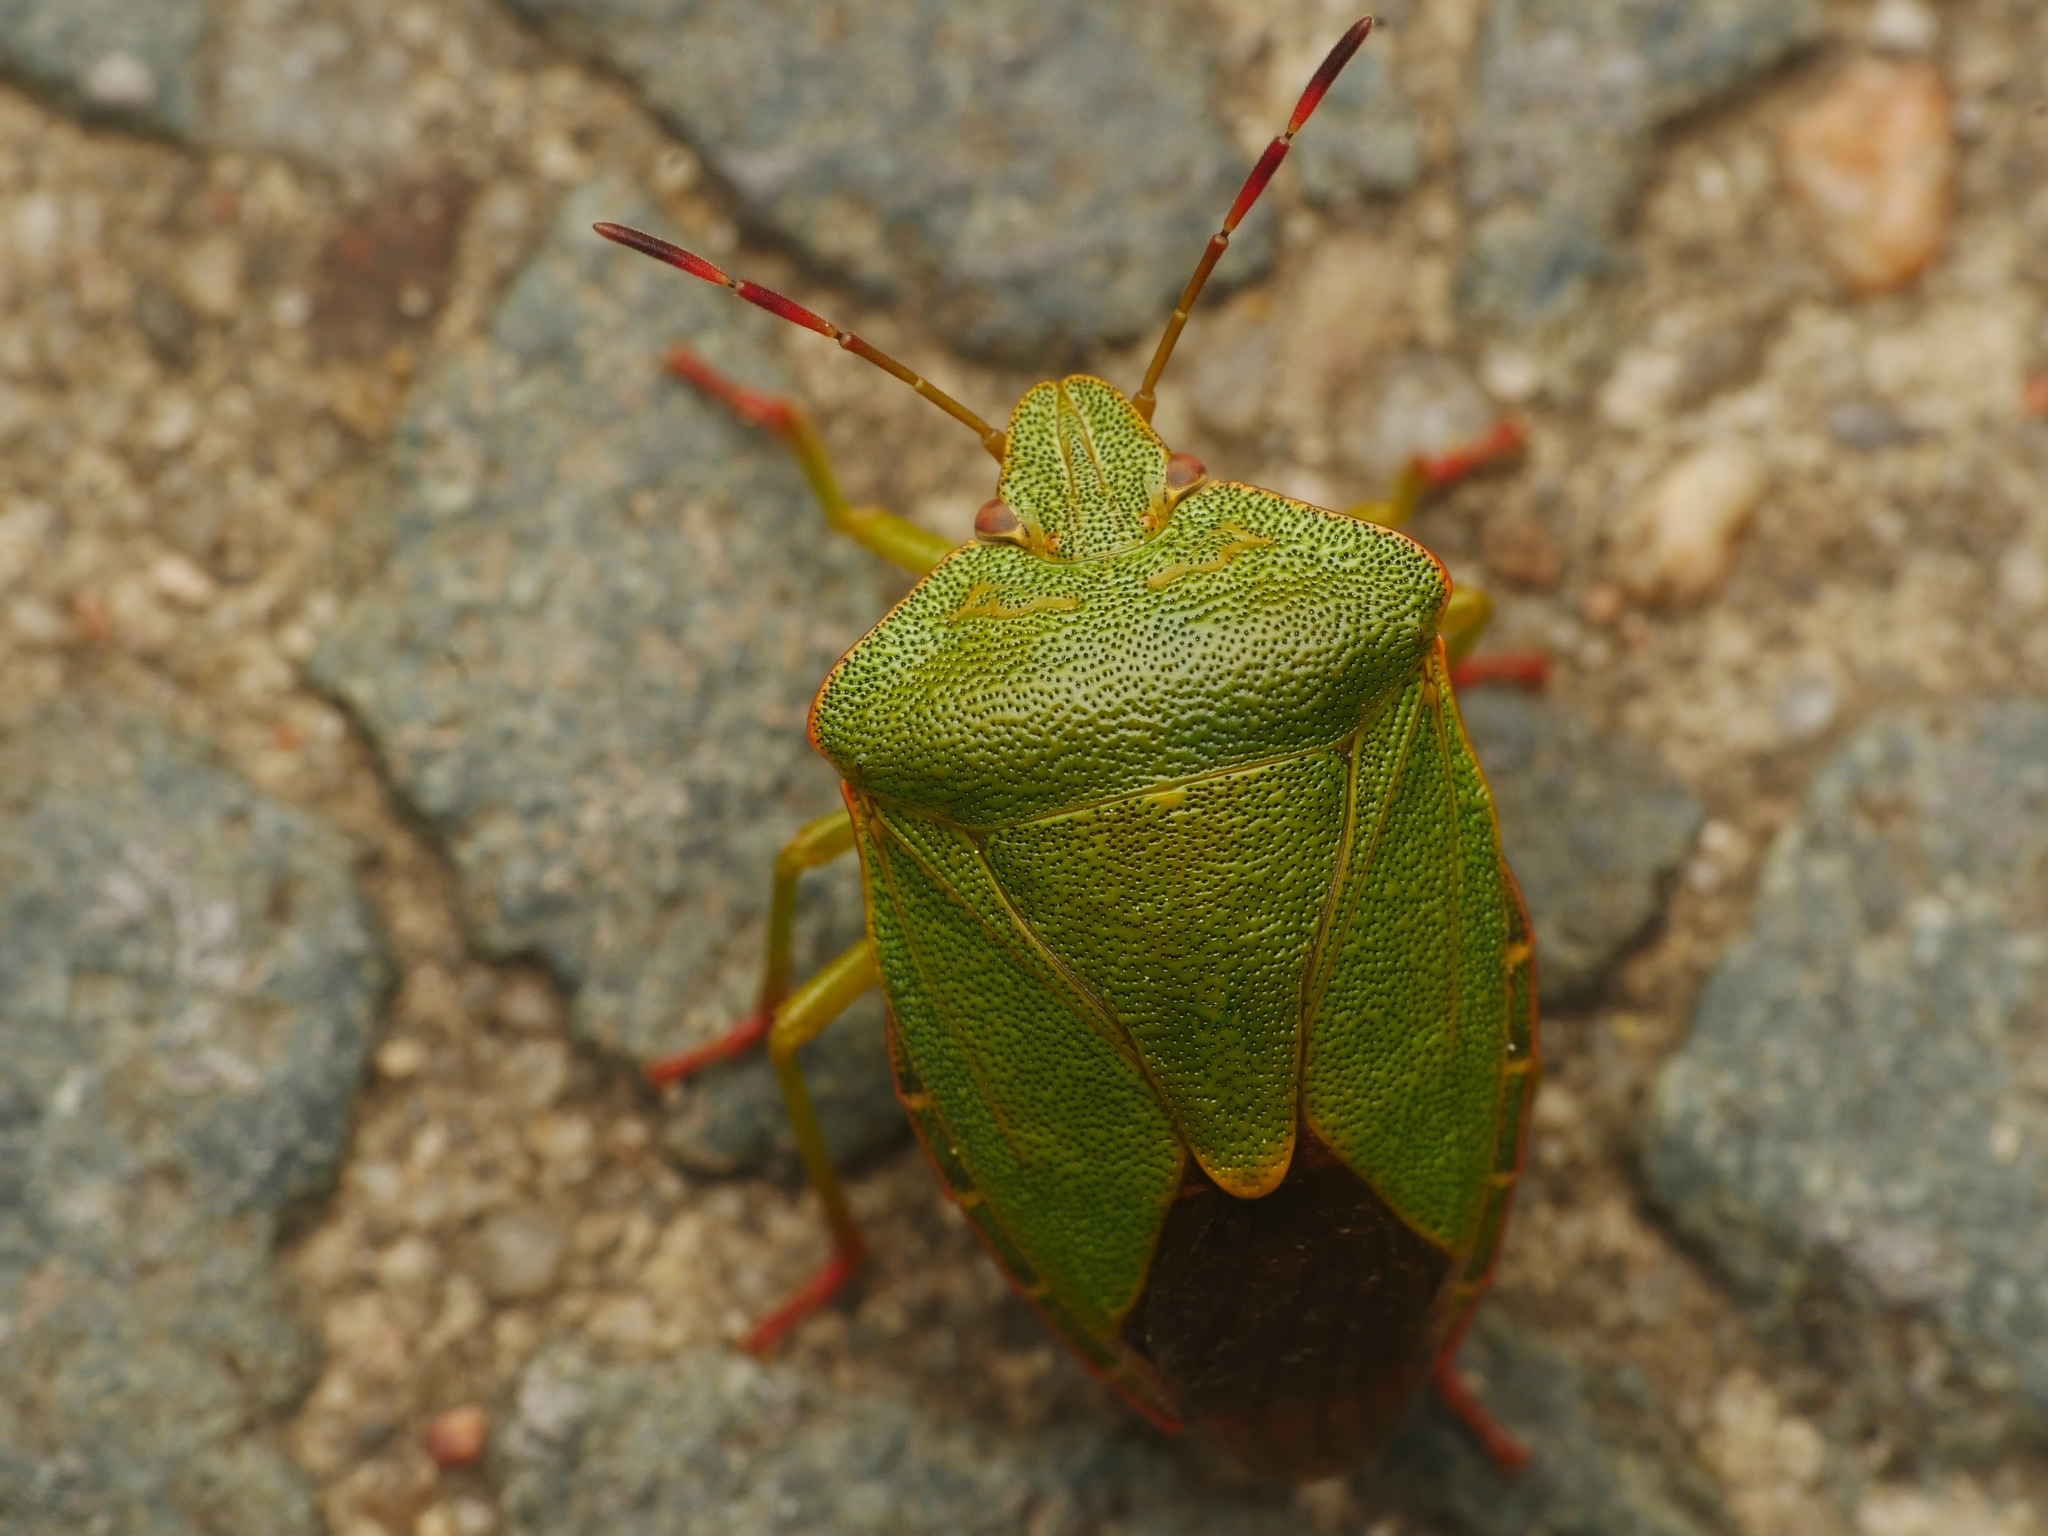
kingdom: Animalia
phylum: Arthropoda
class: Insecta
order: Hemiptera
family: Pentatomidae
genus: Palomena
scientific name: Palomena prasina
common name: Green shieldbug
